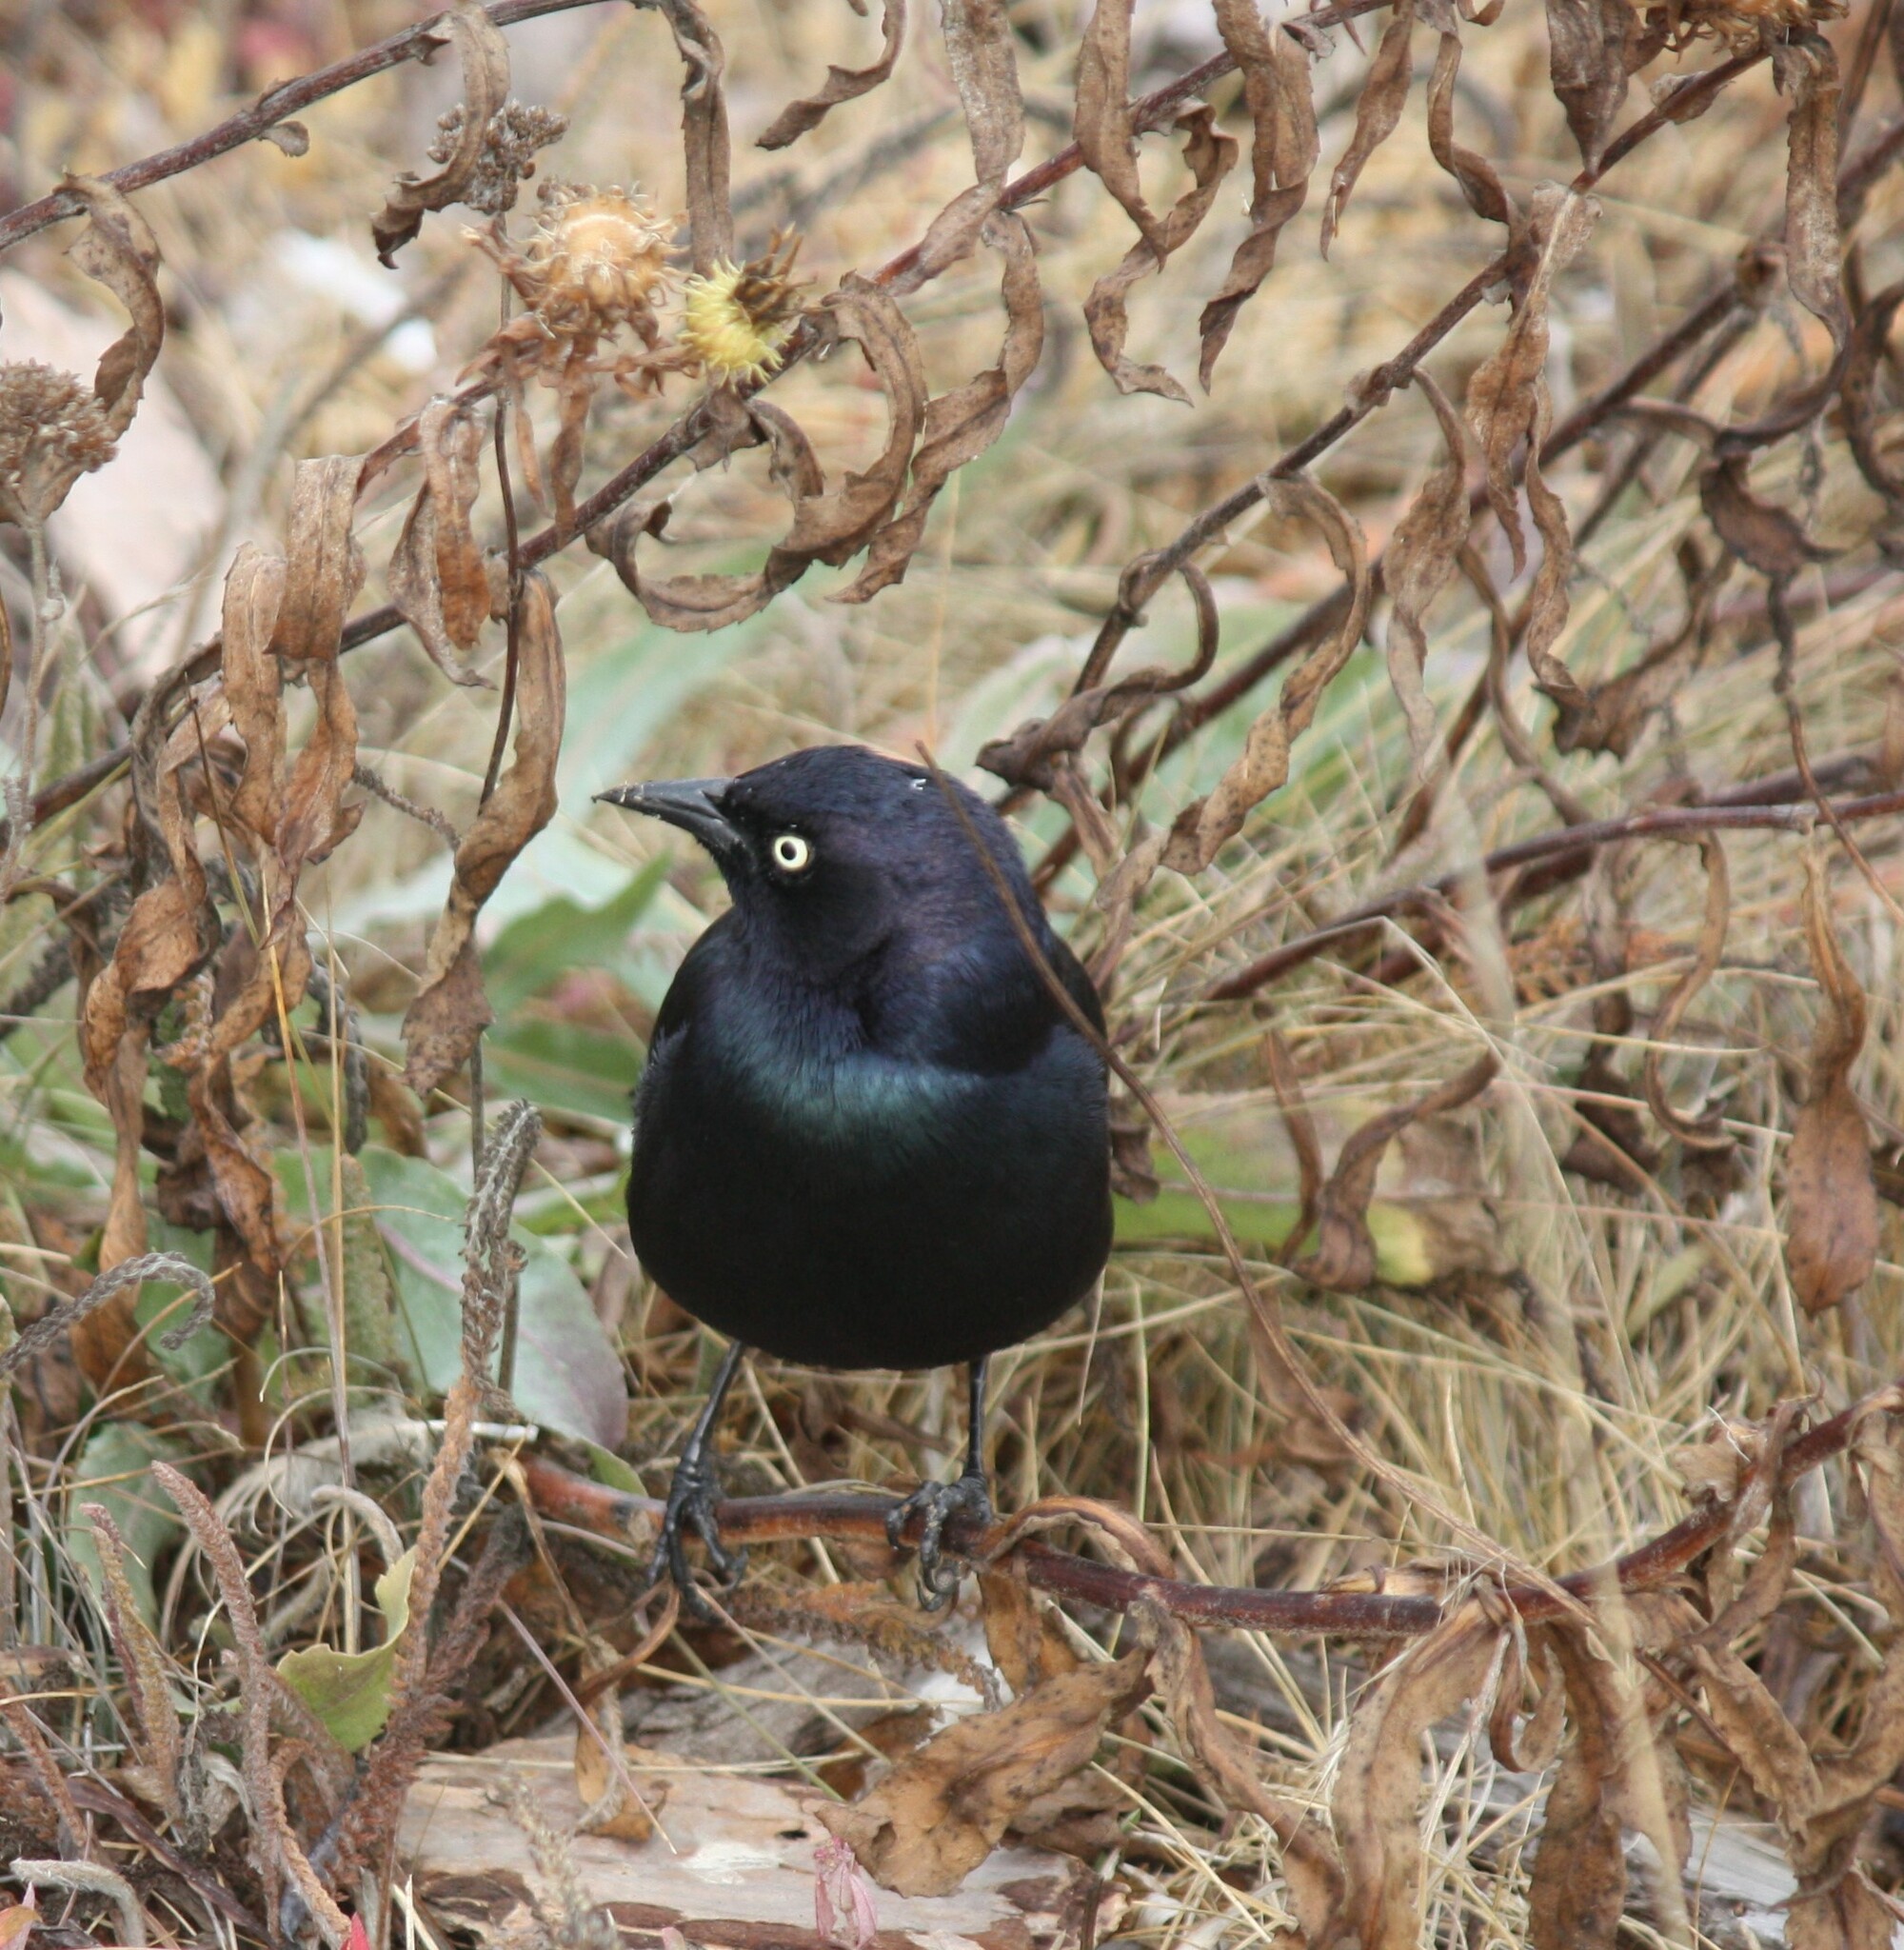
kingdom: Animalia
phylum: Chordata
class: Aves
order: Passeriformes
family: Icteridae
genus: Euphagus
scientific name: Euphagus cyanocephalus
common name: Brewer's blackbird
